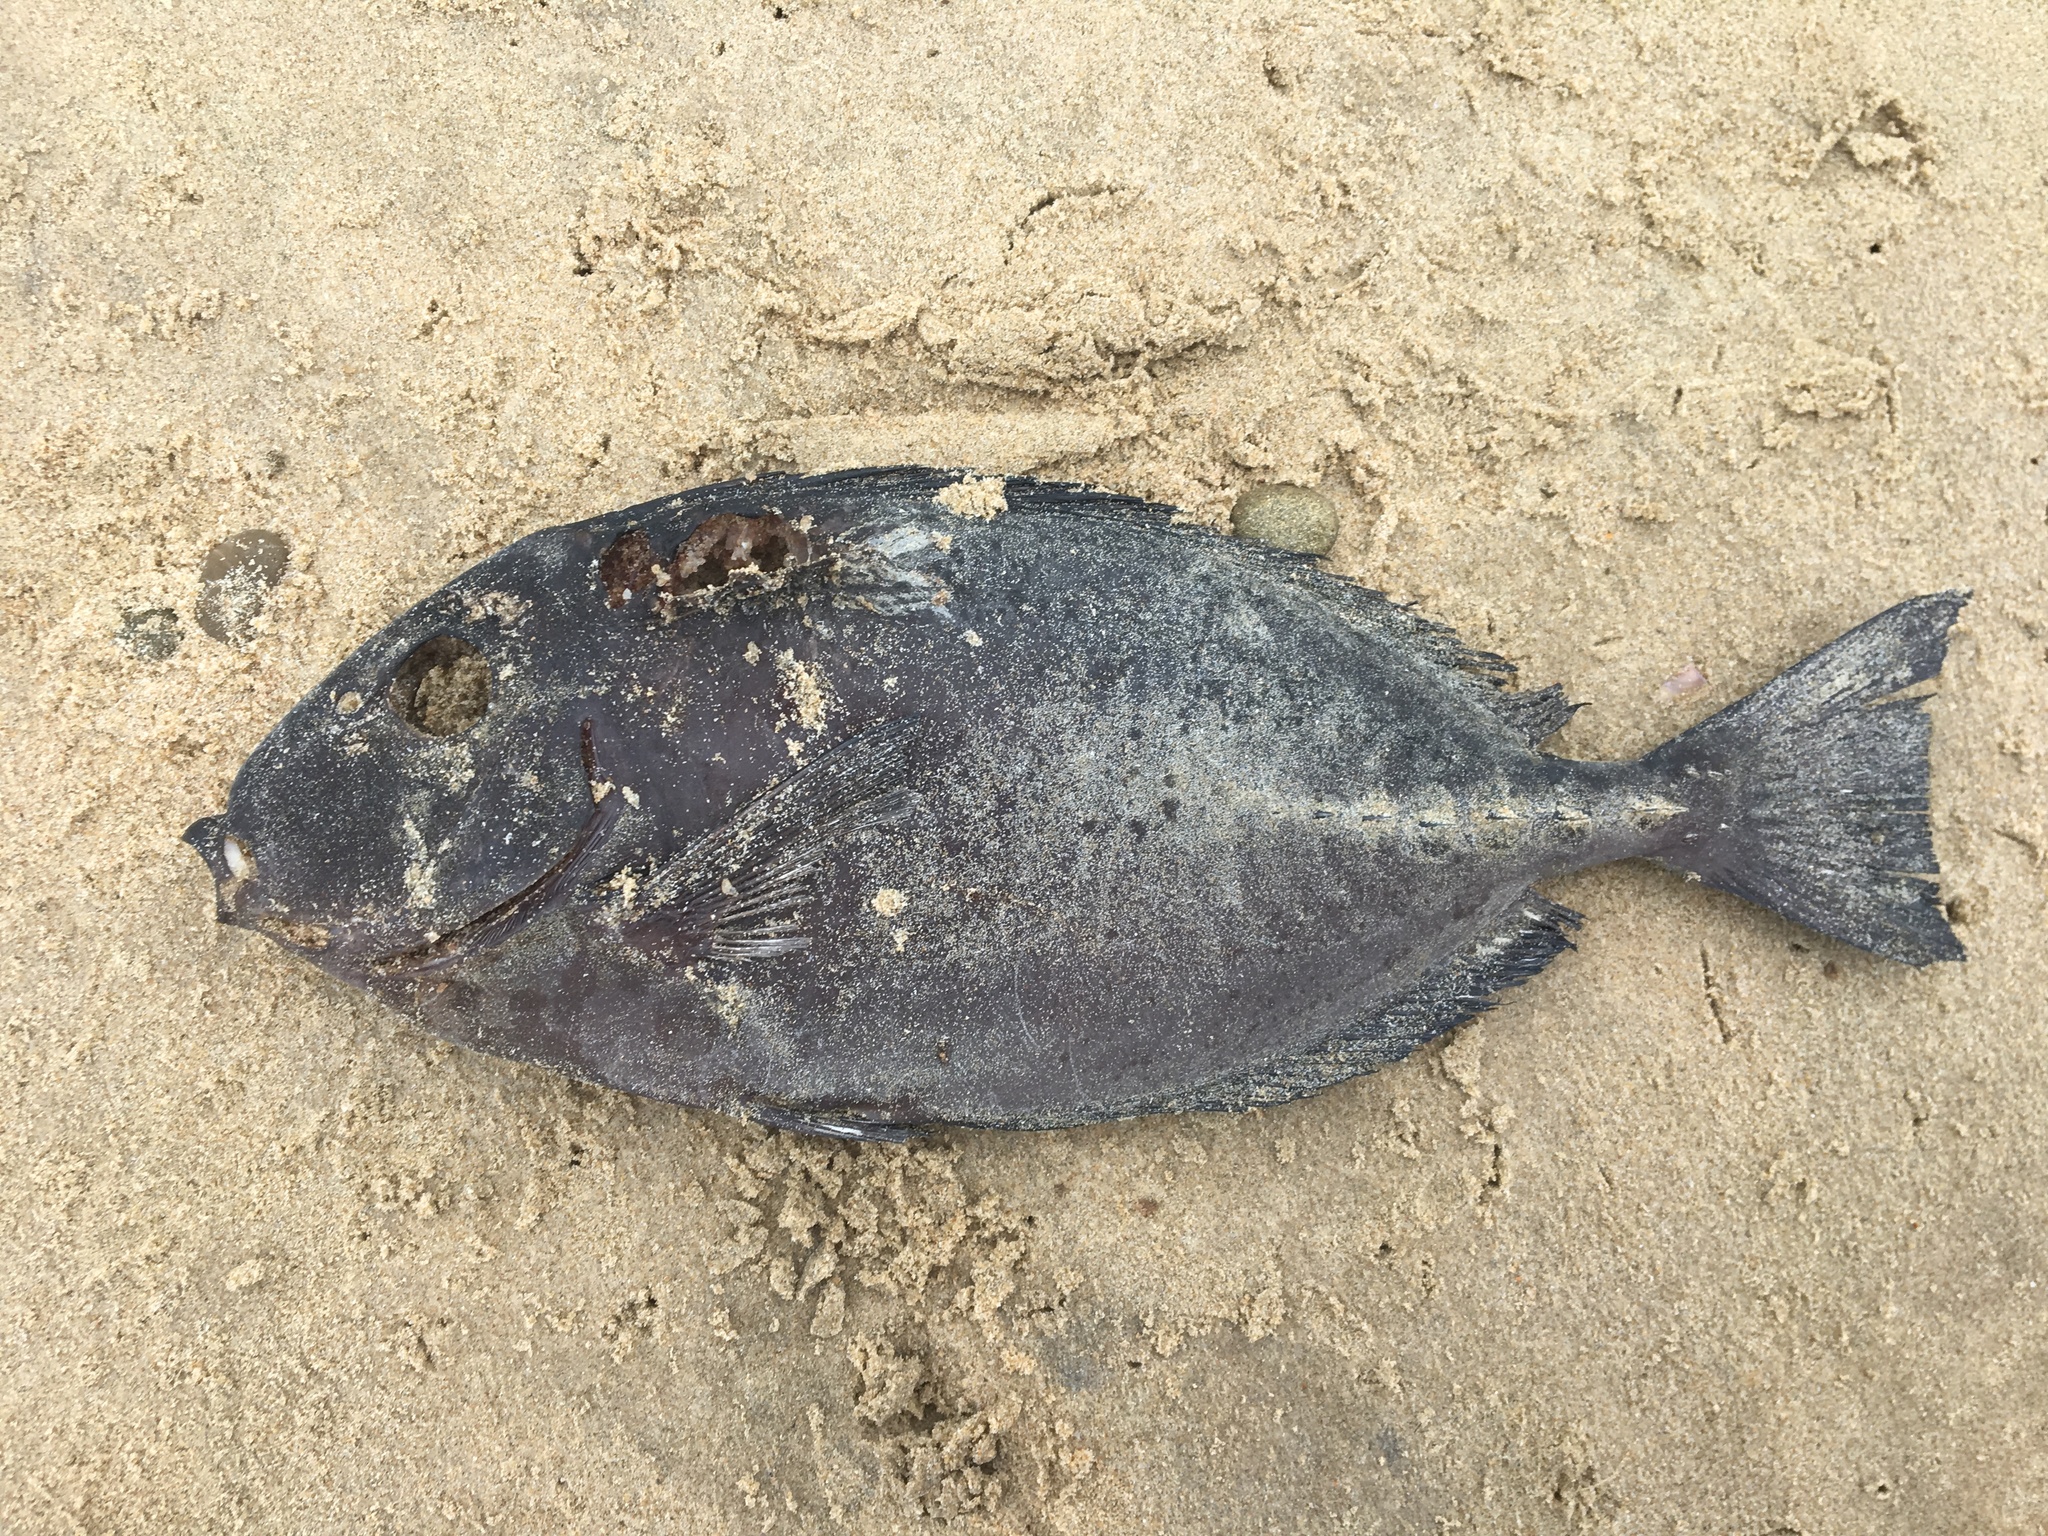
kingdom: Animalia
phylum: Chordata
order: Perciformes
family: Acanthuridae
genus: Prionurus
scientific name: Prionurus microlepidotus
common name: Sixplate sawtail
